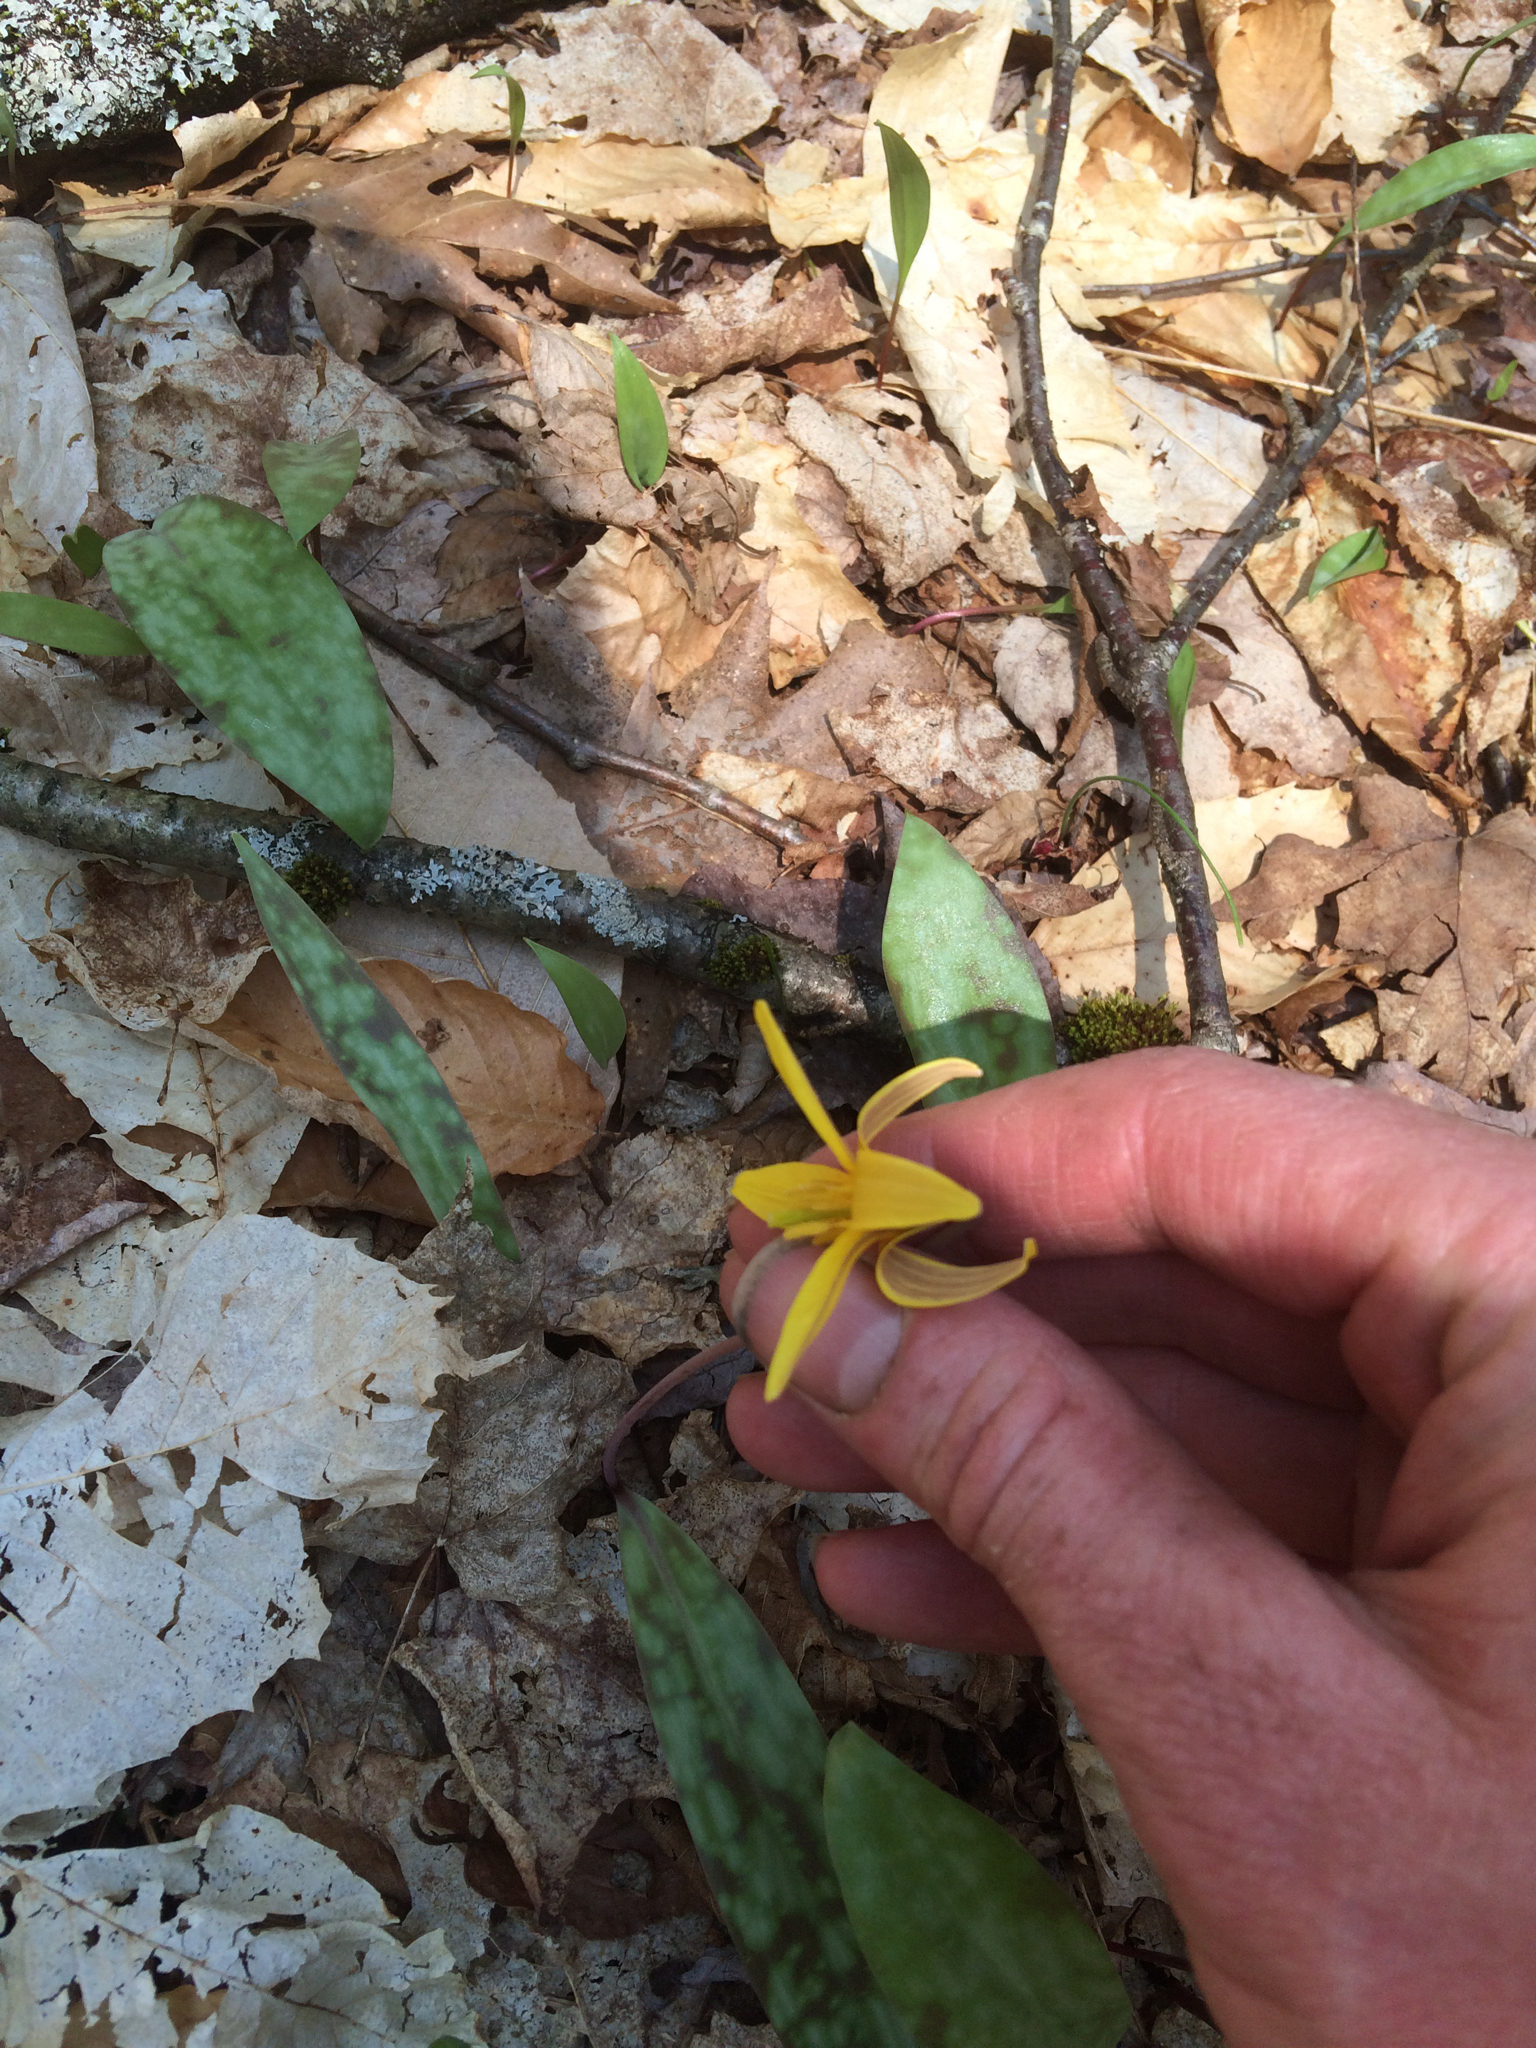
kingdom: Plantae
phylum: Tracheophyta
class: Liliopsida
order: Liliales
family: Liliaceae
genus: Erythronium
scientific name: Erythronium americanum
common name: Yellow adder's-tongue
